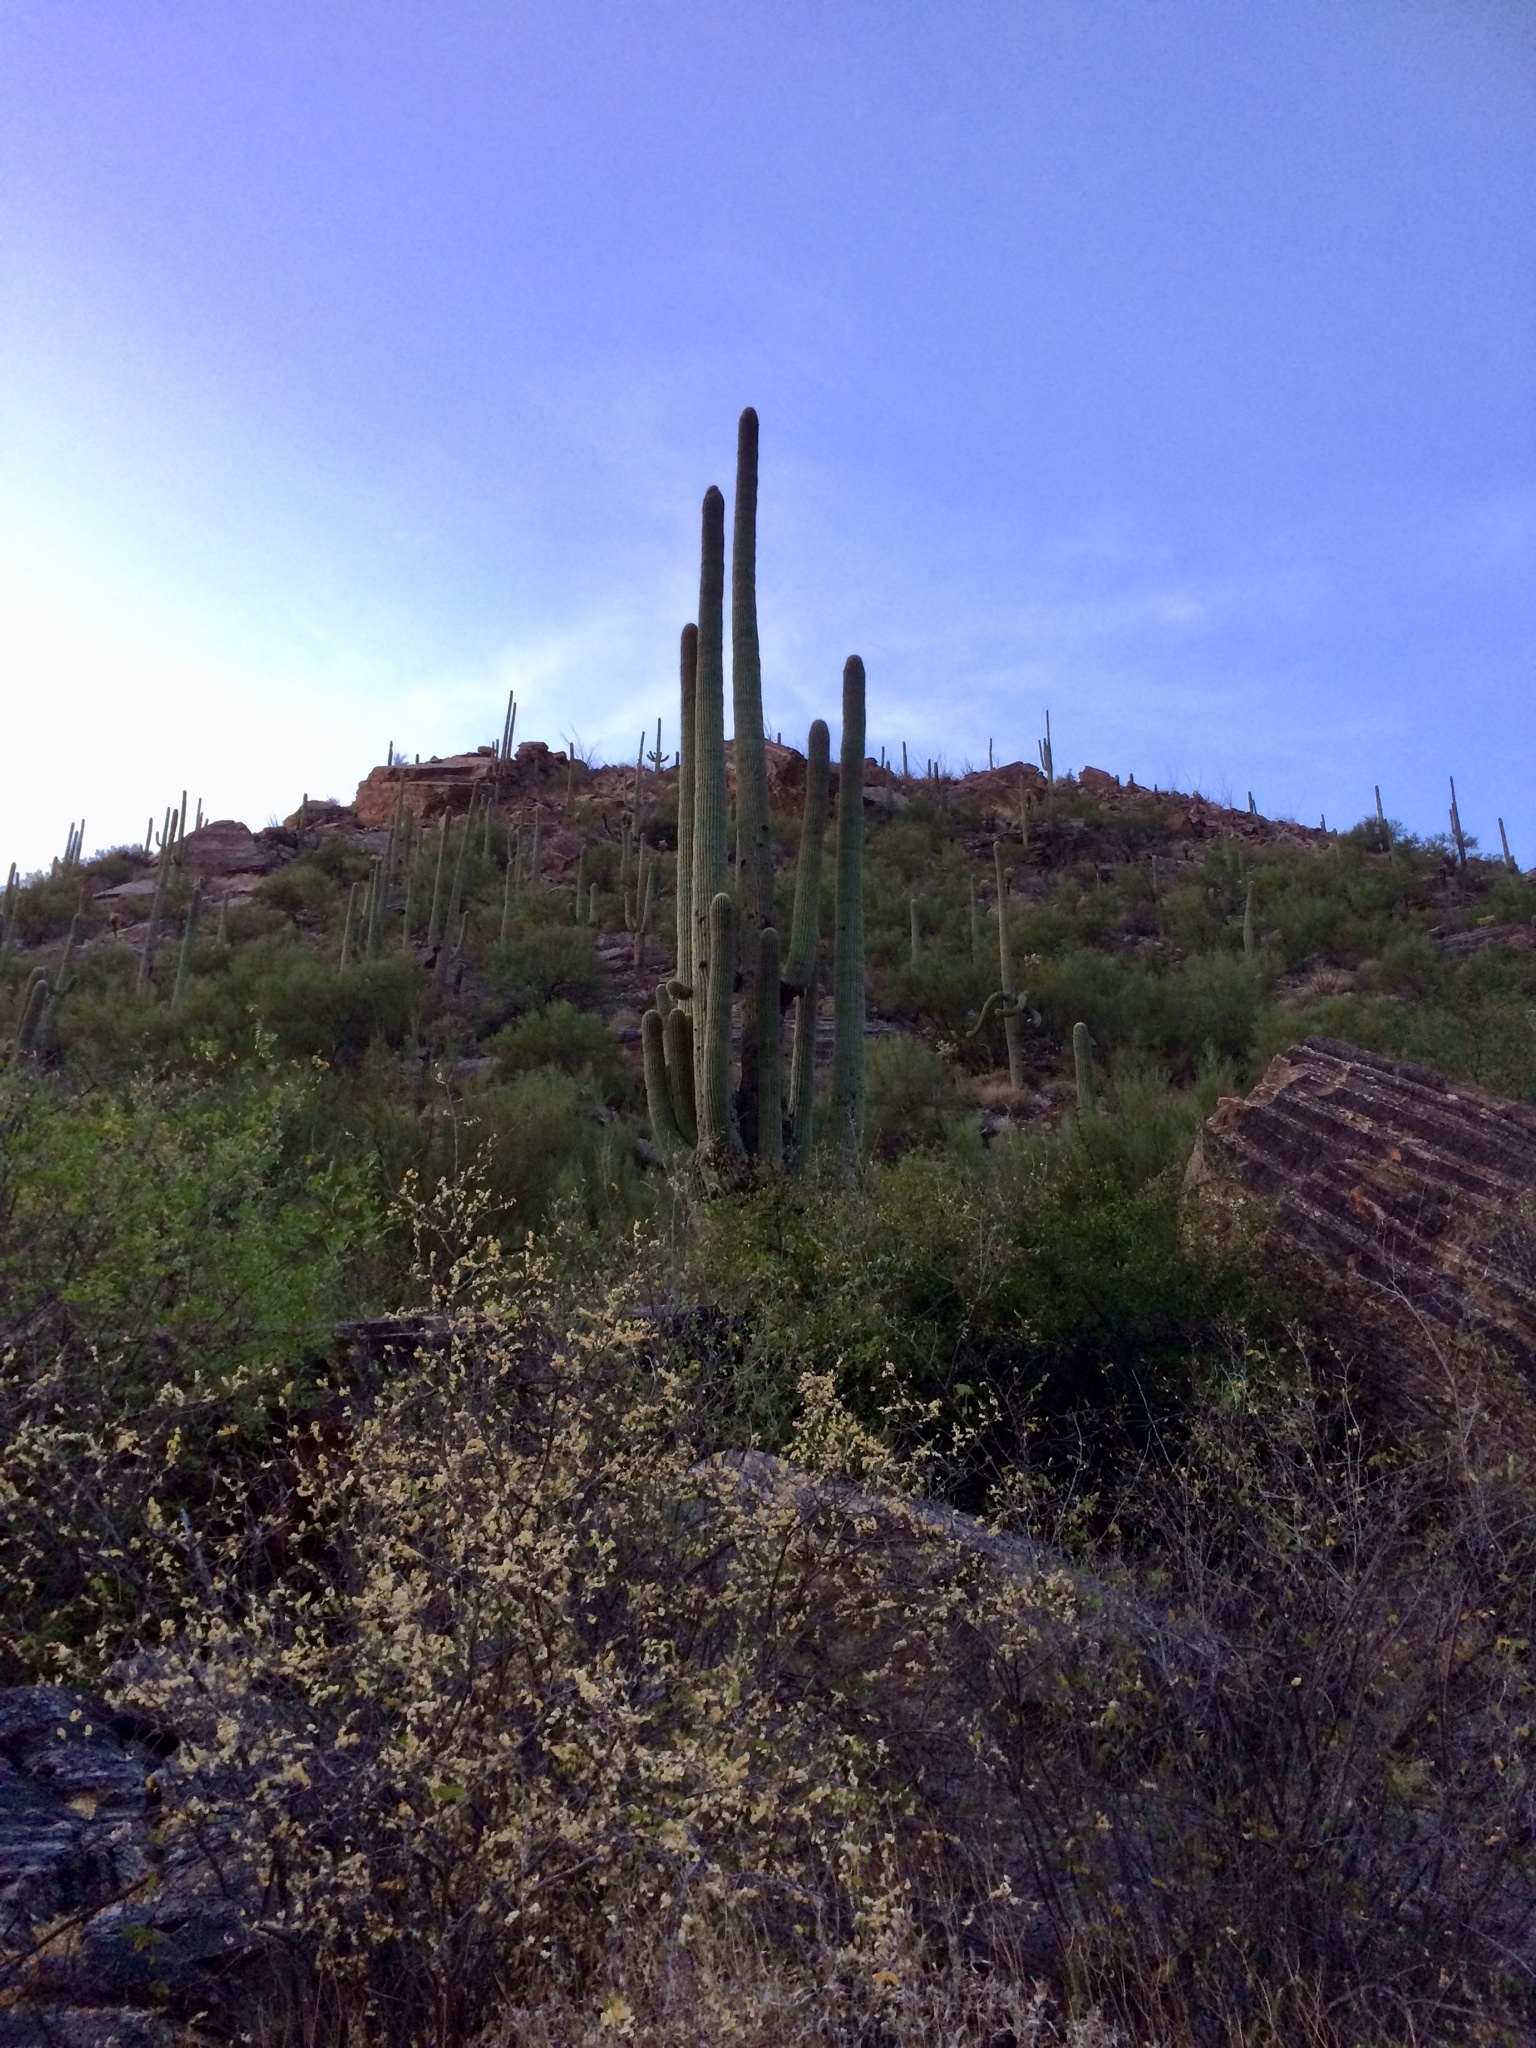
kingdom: Plantae
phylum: Tracheophyta
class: Magnoliopsida
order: Caryophyllales
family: Cactaceae
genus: Carnegiea
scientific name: Carnegiea gigantea
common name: Saguaro
